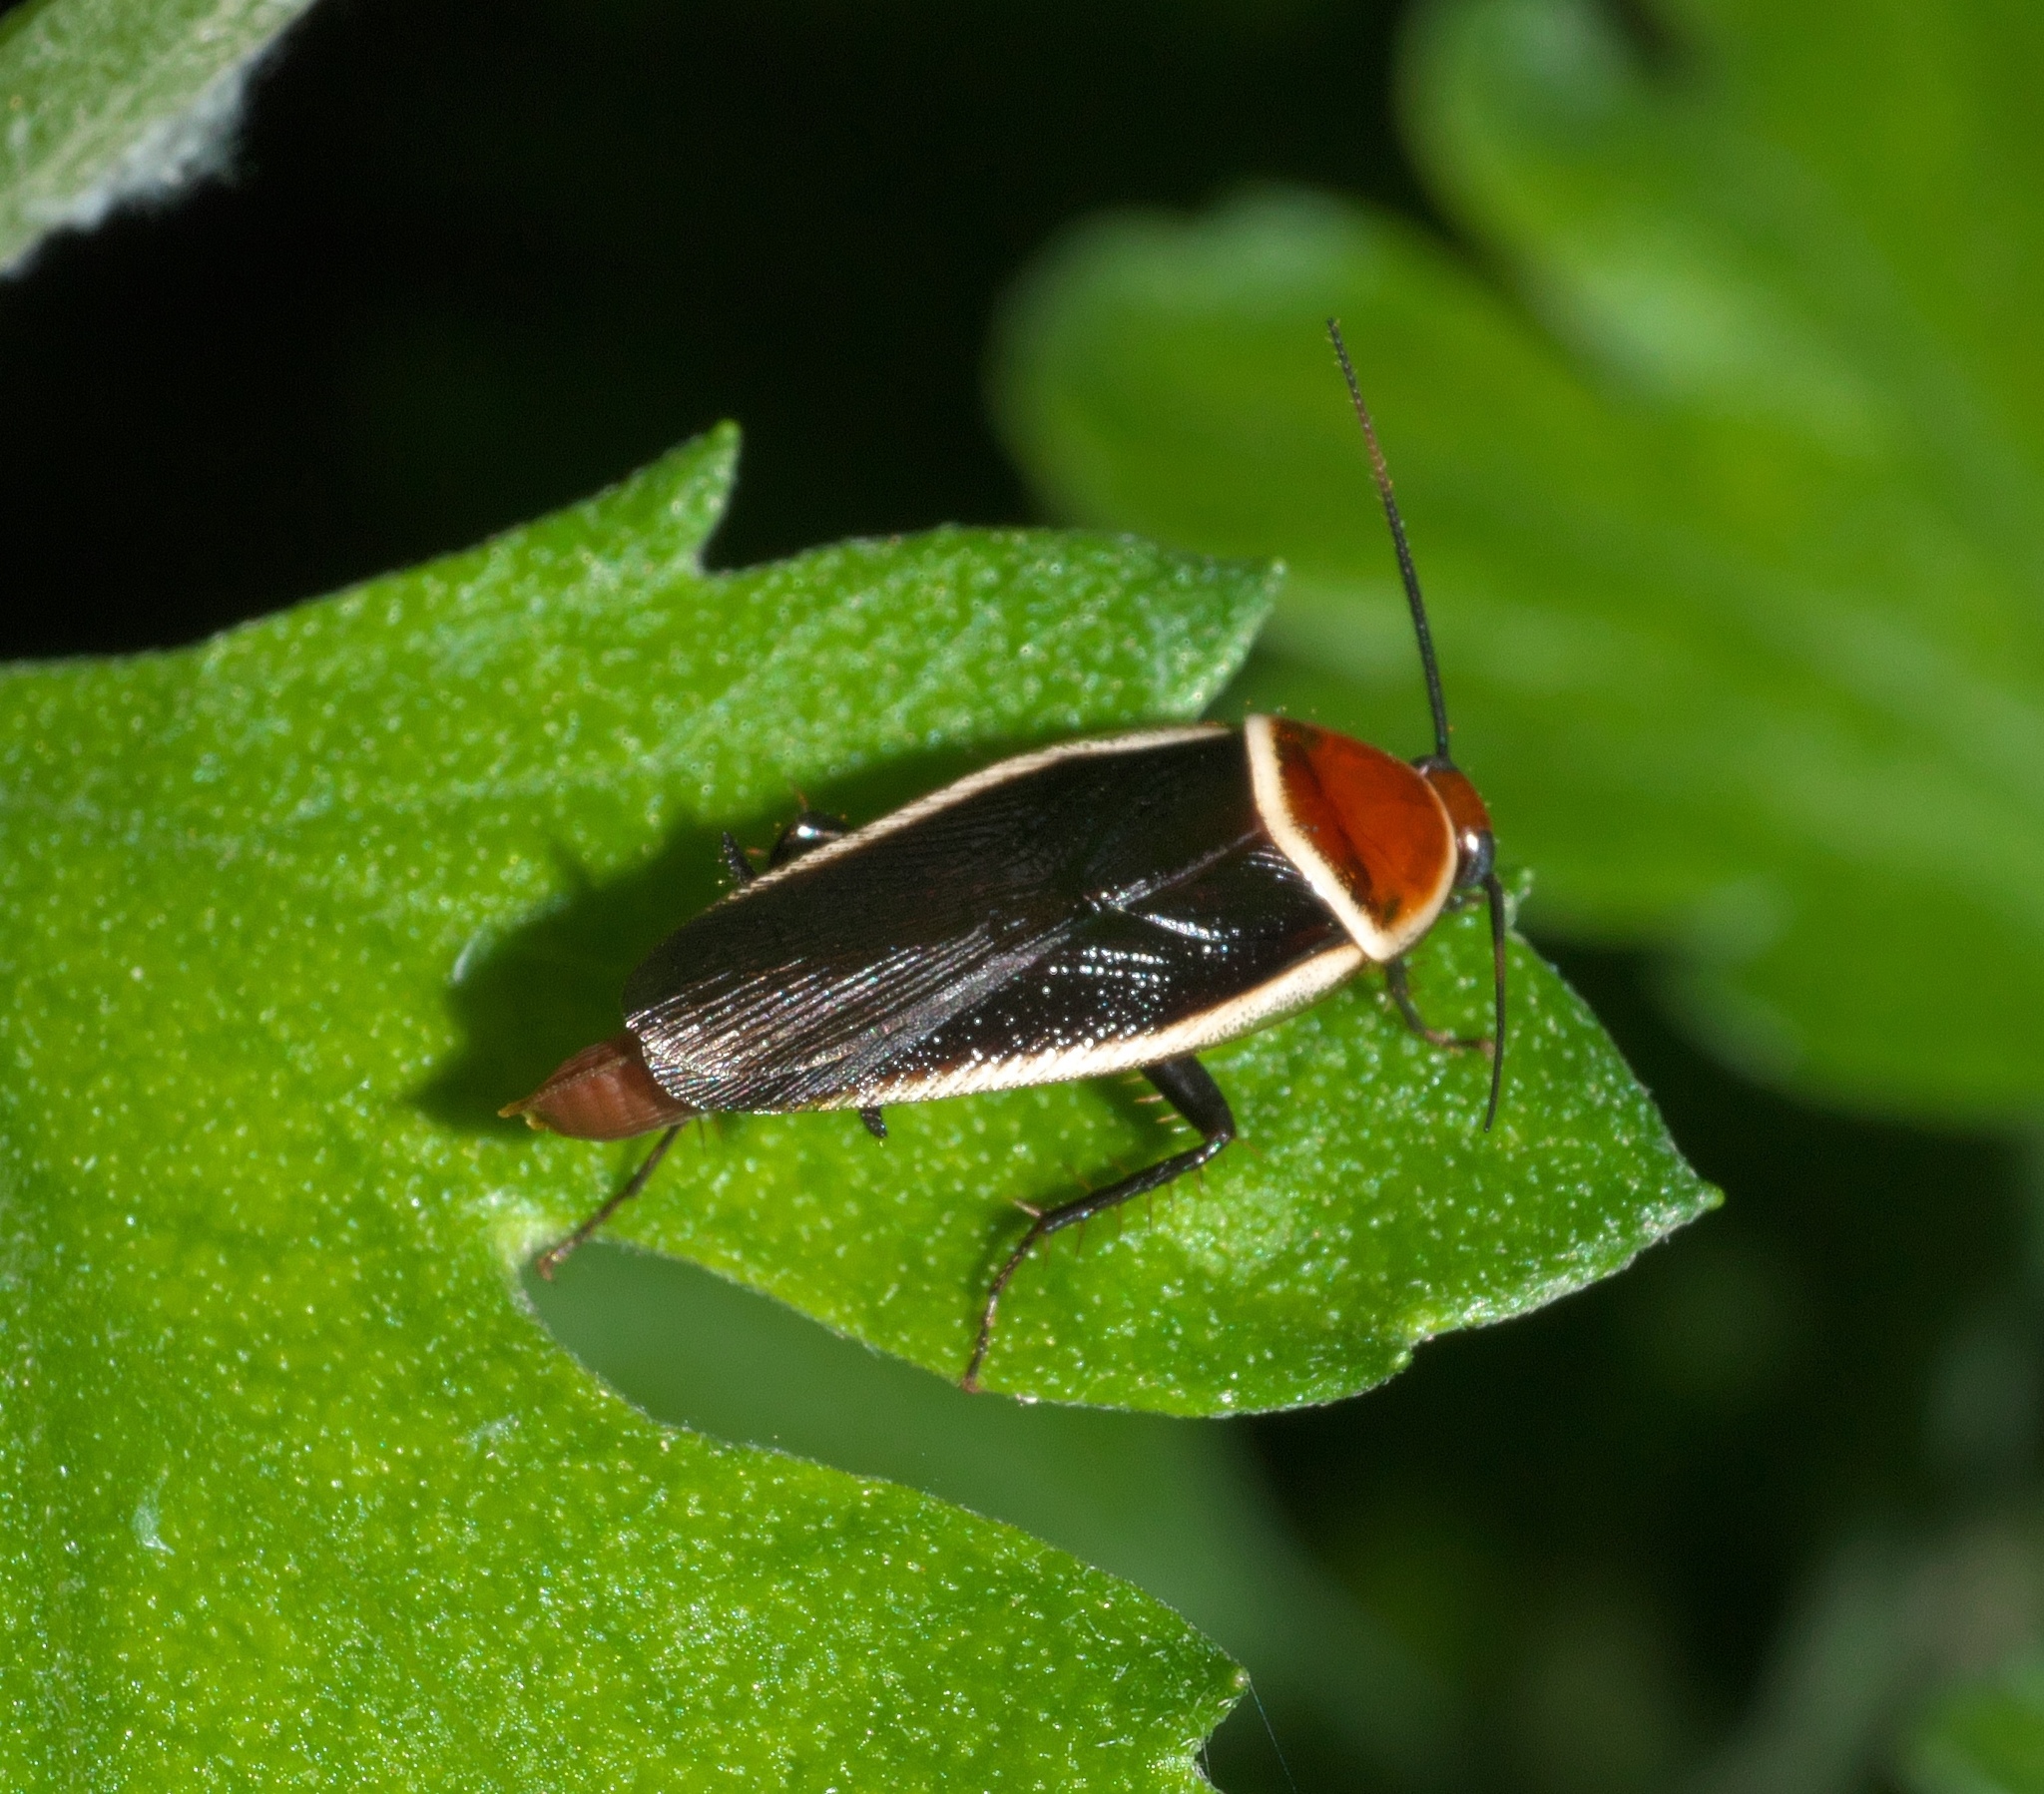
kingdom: Animalia
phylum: Arthropoda
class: Insecta
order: Blattodea
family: Ectobiidae
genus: Pseudomops
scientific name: Pseudomops septentrionalis
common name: Pale-bordered field cockroach
